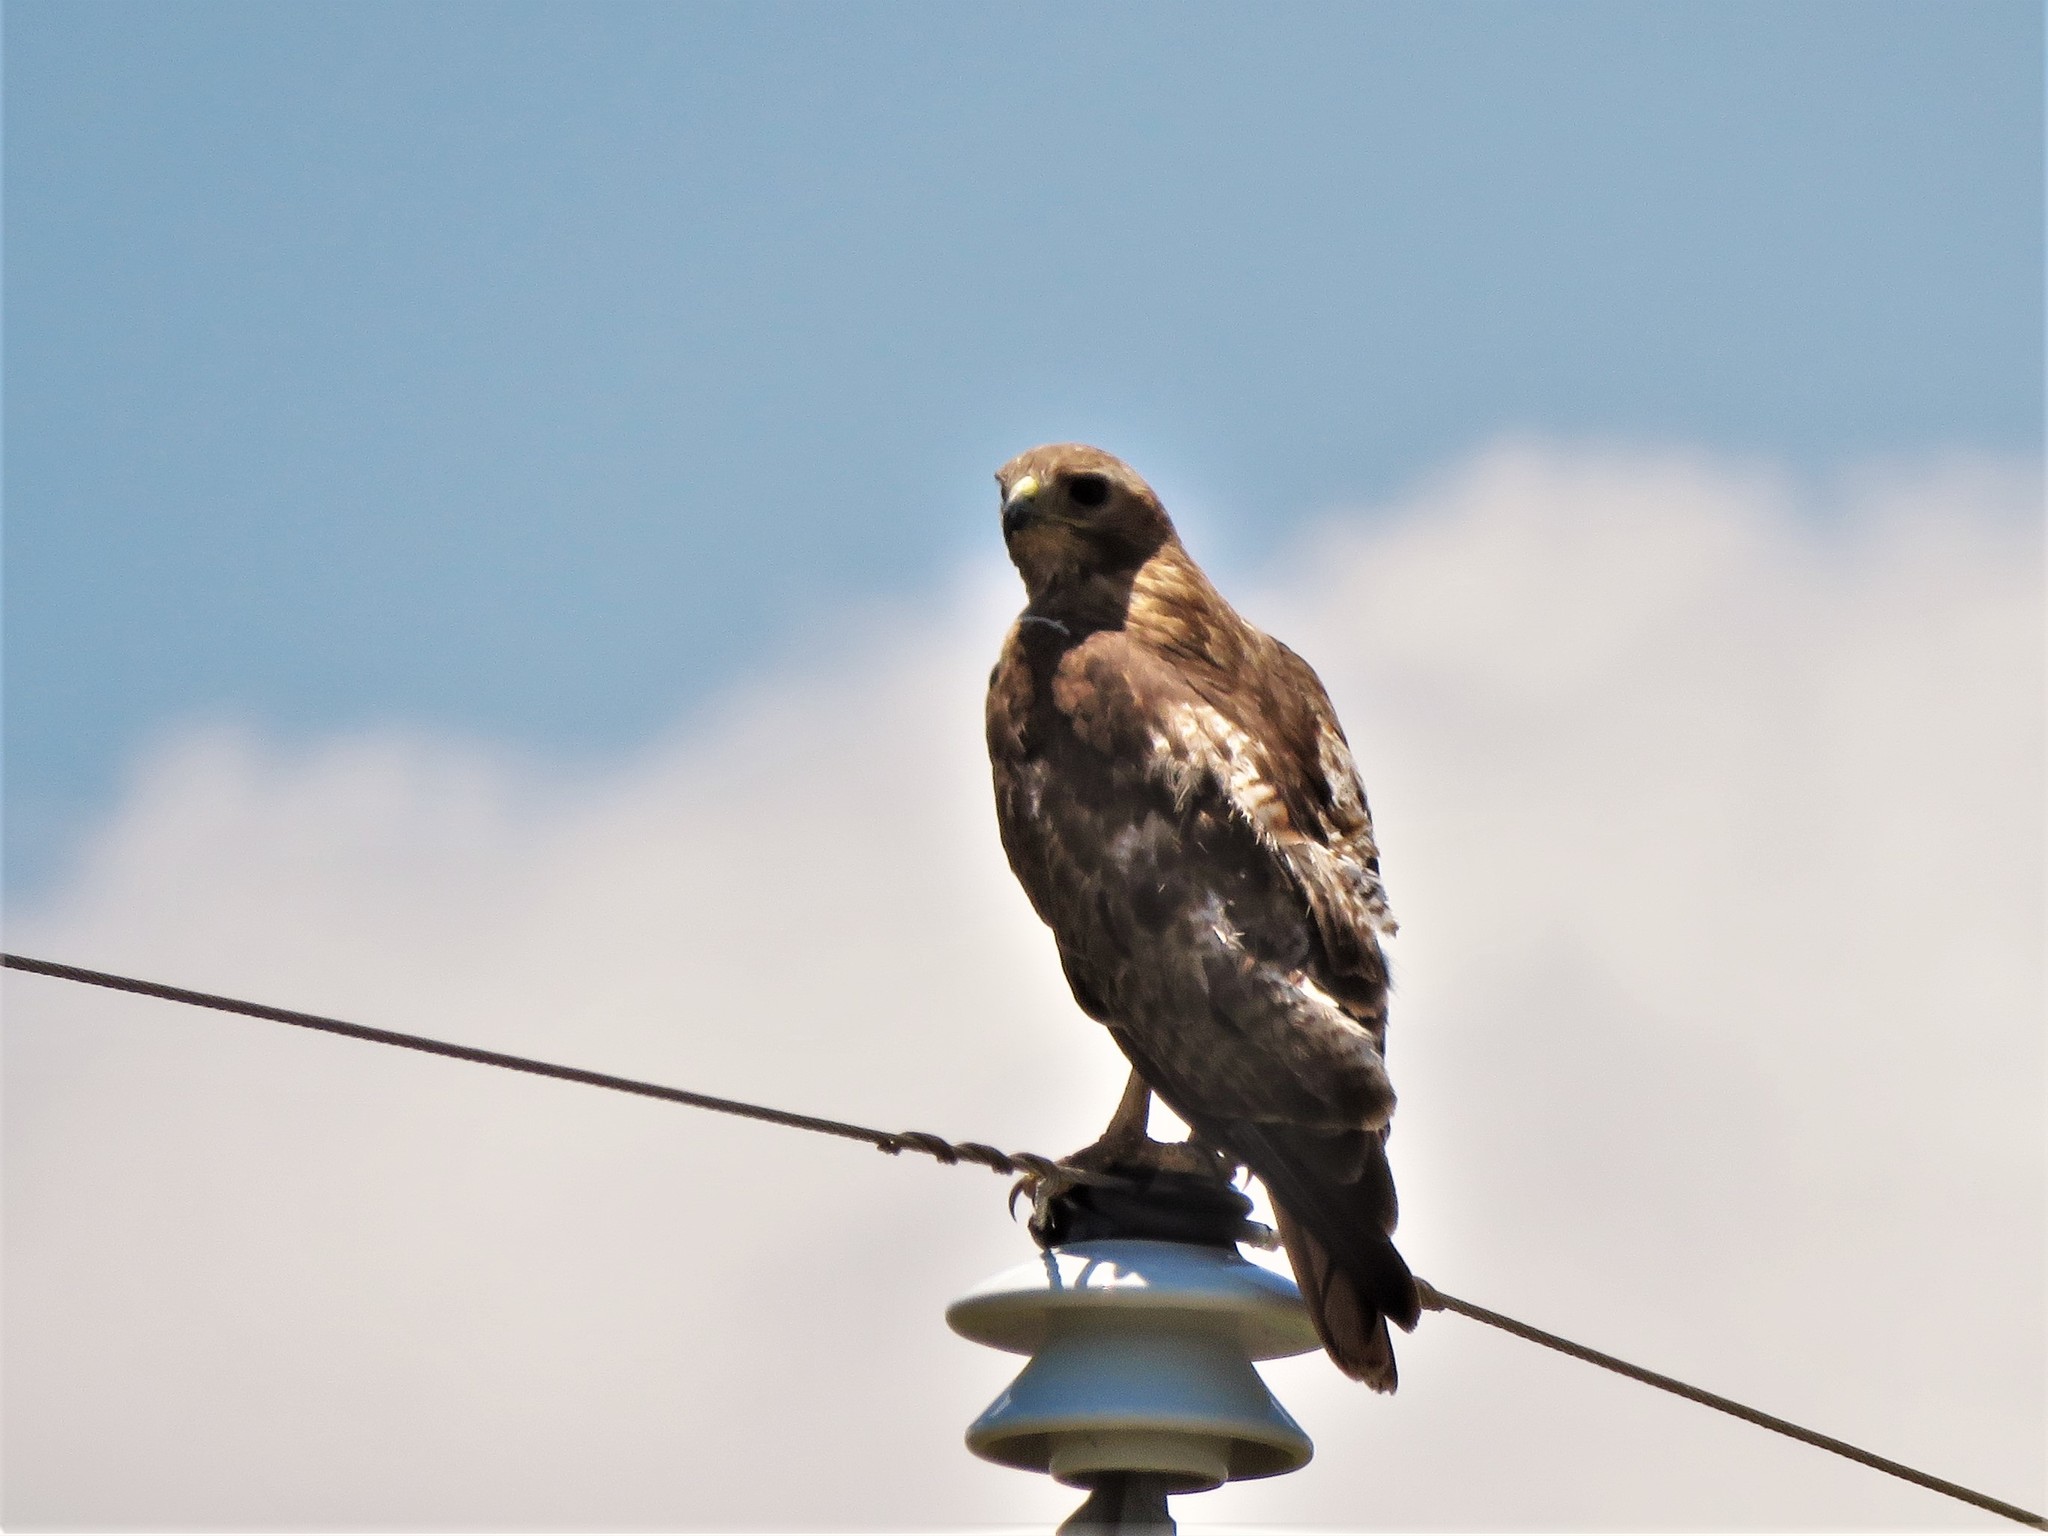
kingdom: Animalia
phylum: Chordata
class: Aves
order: Accipitriformes
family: Accipitridae
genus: Buteo
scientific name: Buteo jamaicensis
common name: Red-tailed hawk
